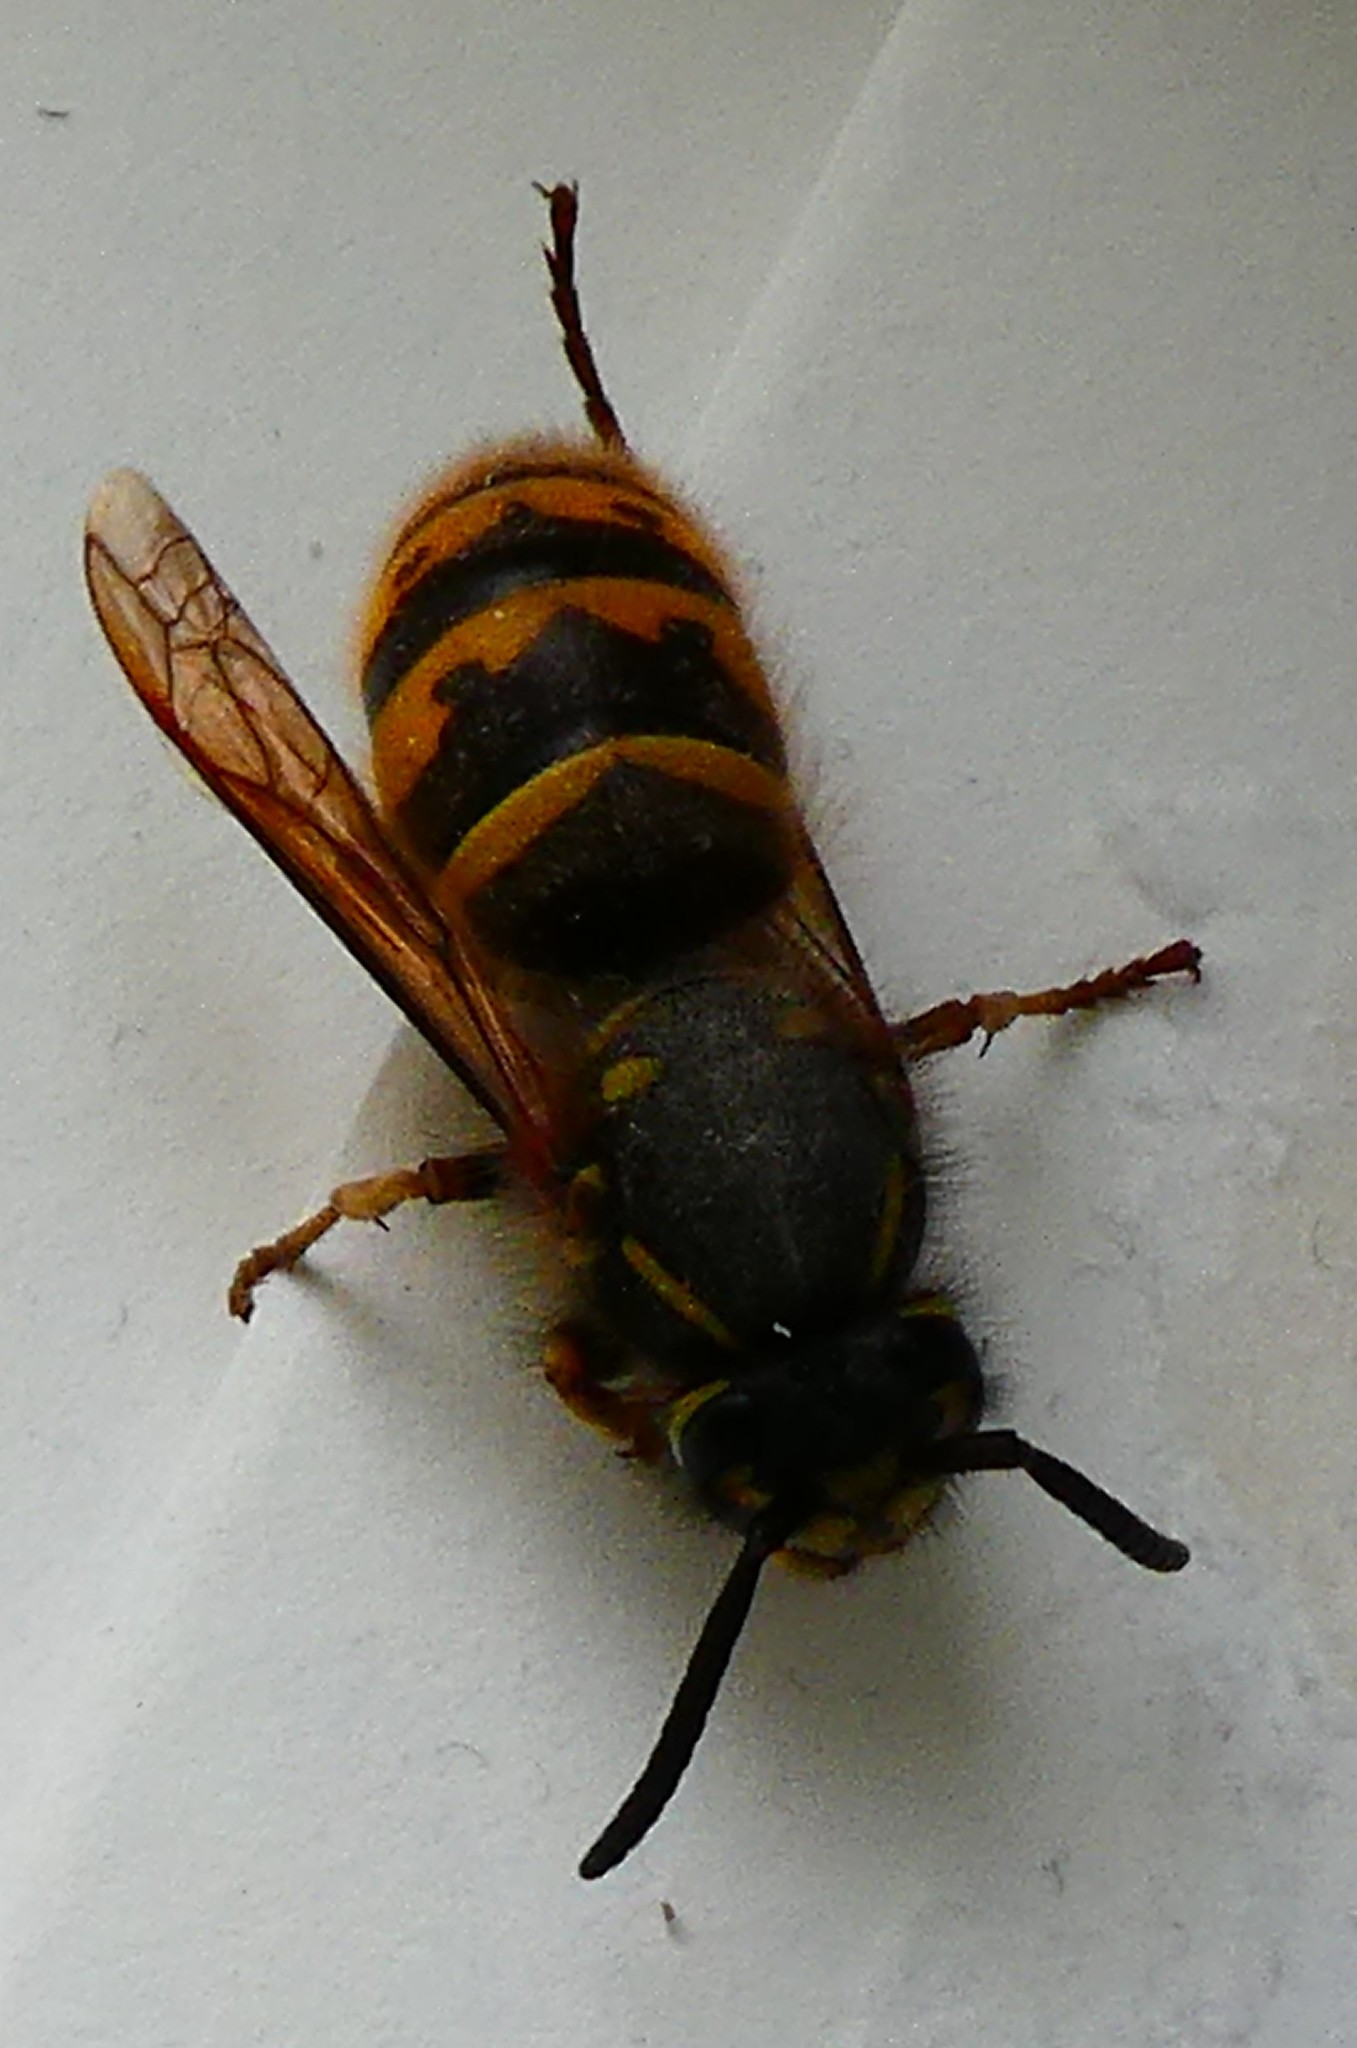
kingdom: Animalia
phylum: Arthropoda
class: Insecta
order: Hymenoptera
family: Vespidae
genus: Vespula
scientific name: Vespula vulgaris
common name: Common wasp
